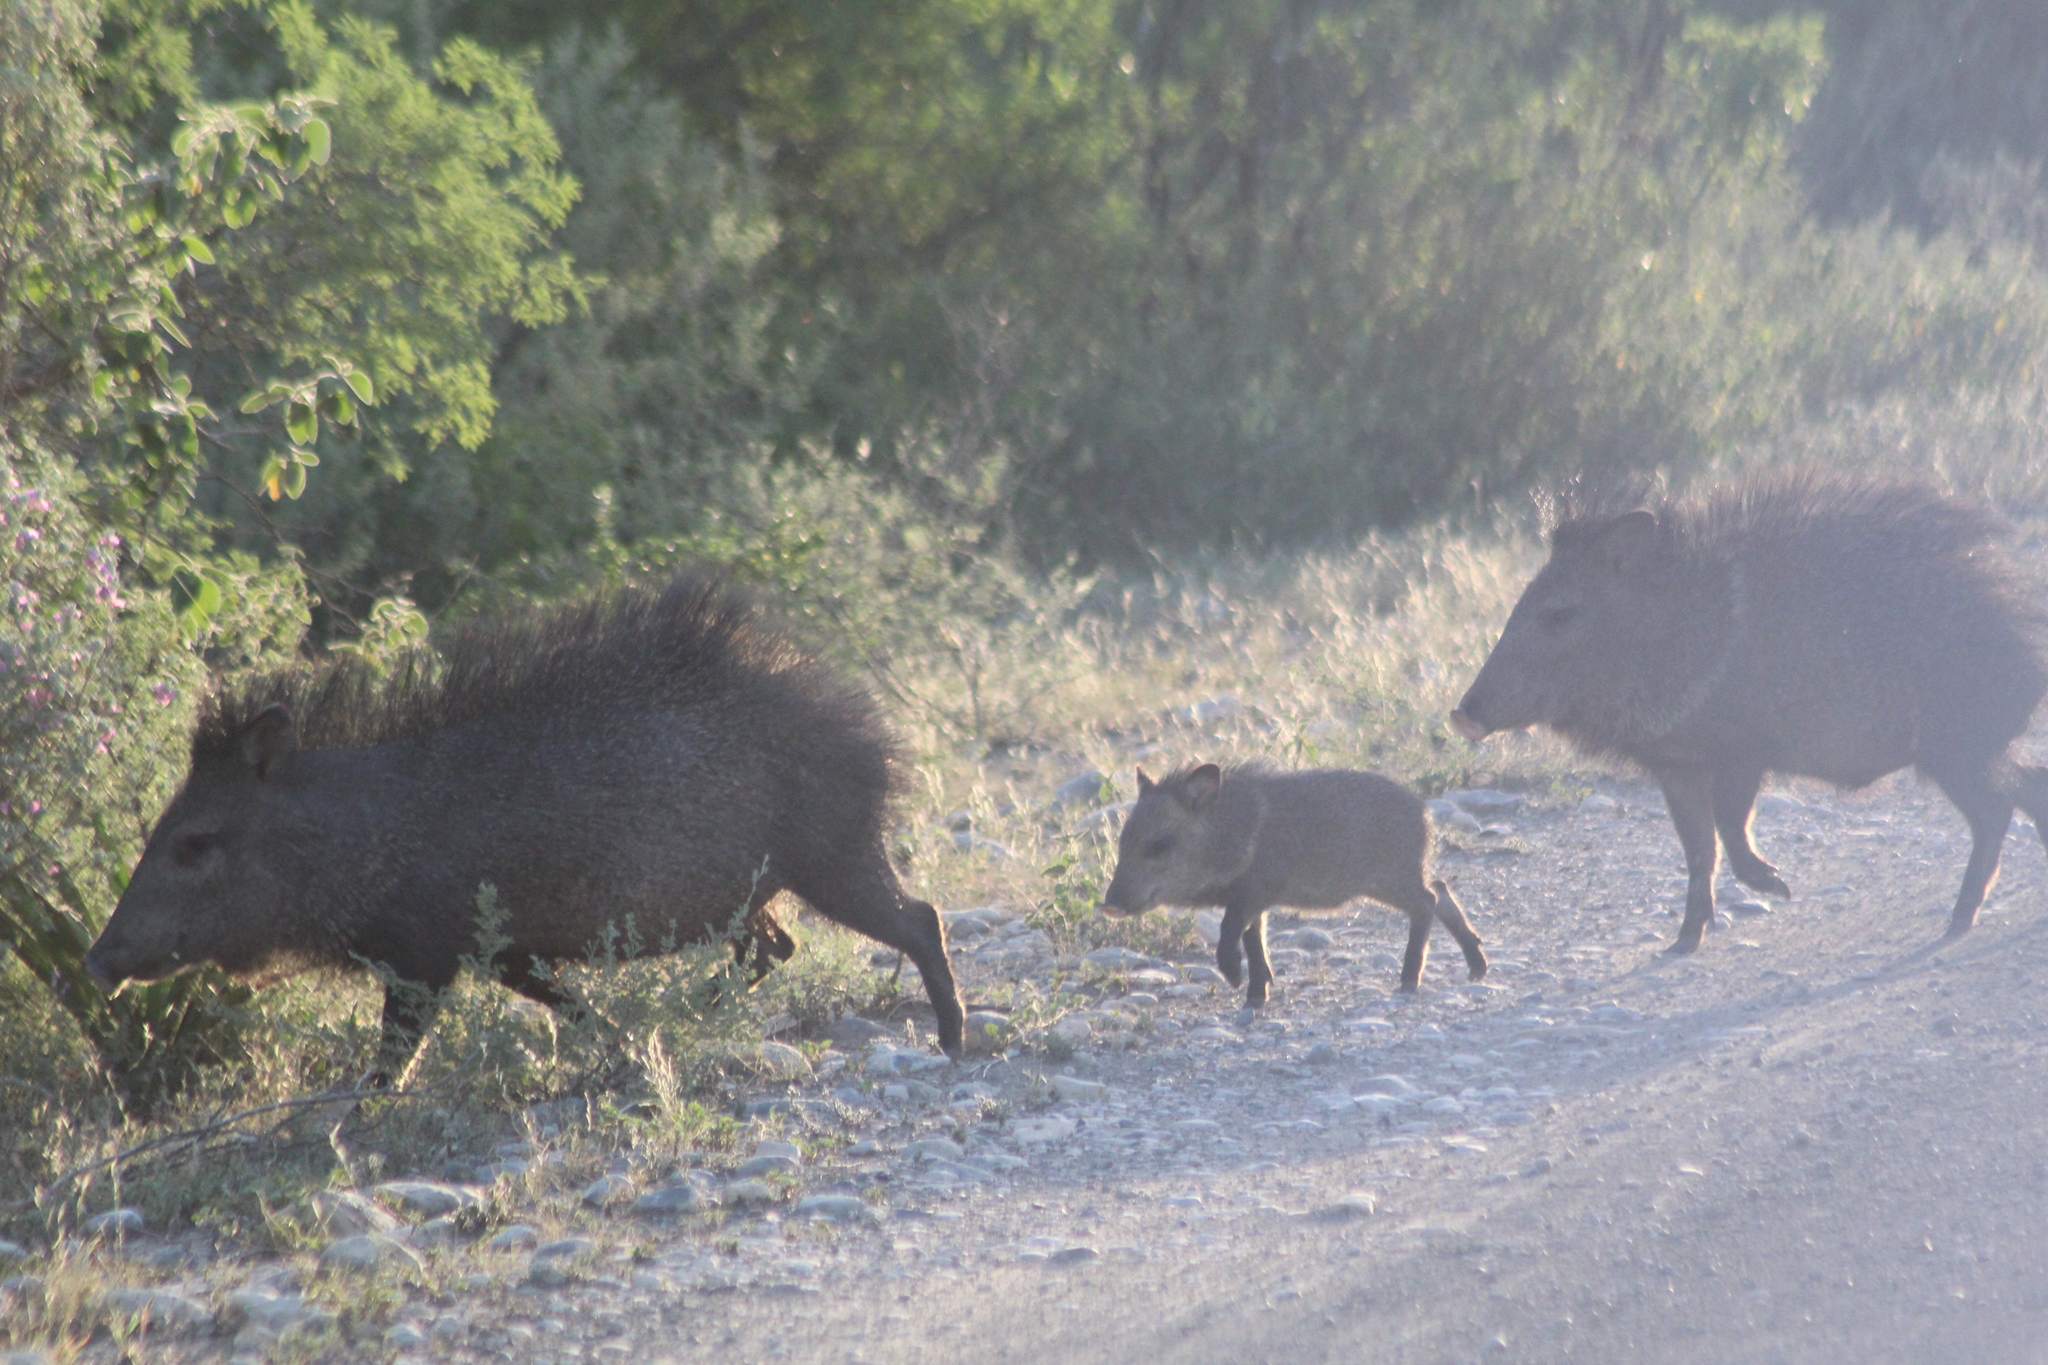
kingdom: Animalia
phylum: Chordata
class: Mammalia
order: Artiodactyla
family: Tayassuidae
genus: Pecari
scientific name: Pecari tajacu
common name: Collared peccary
